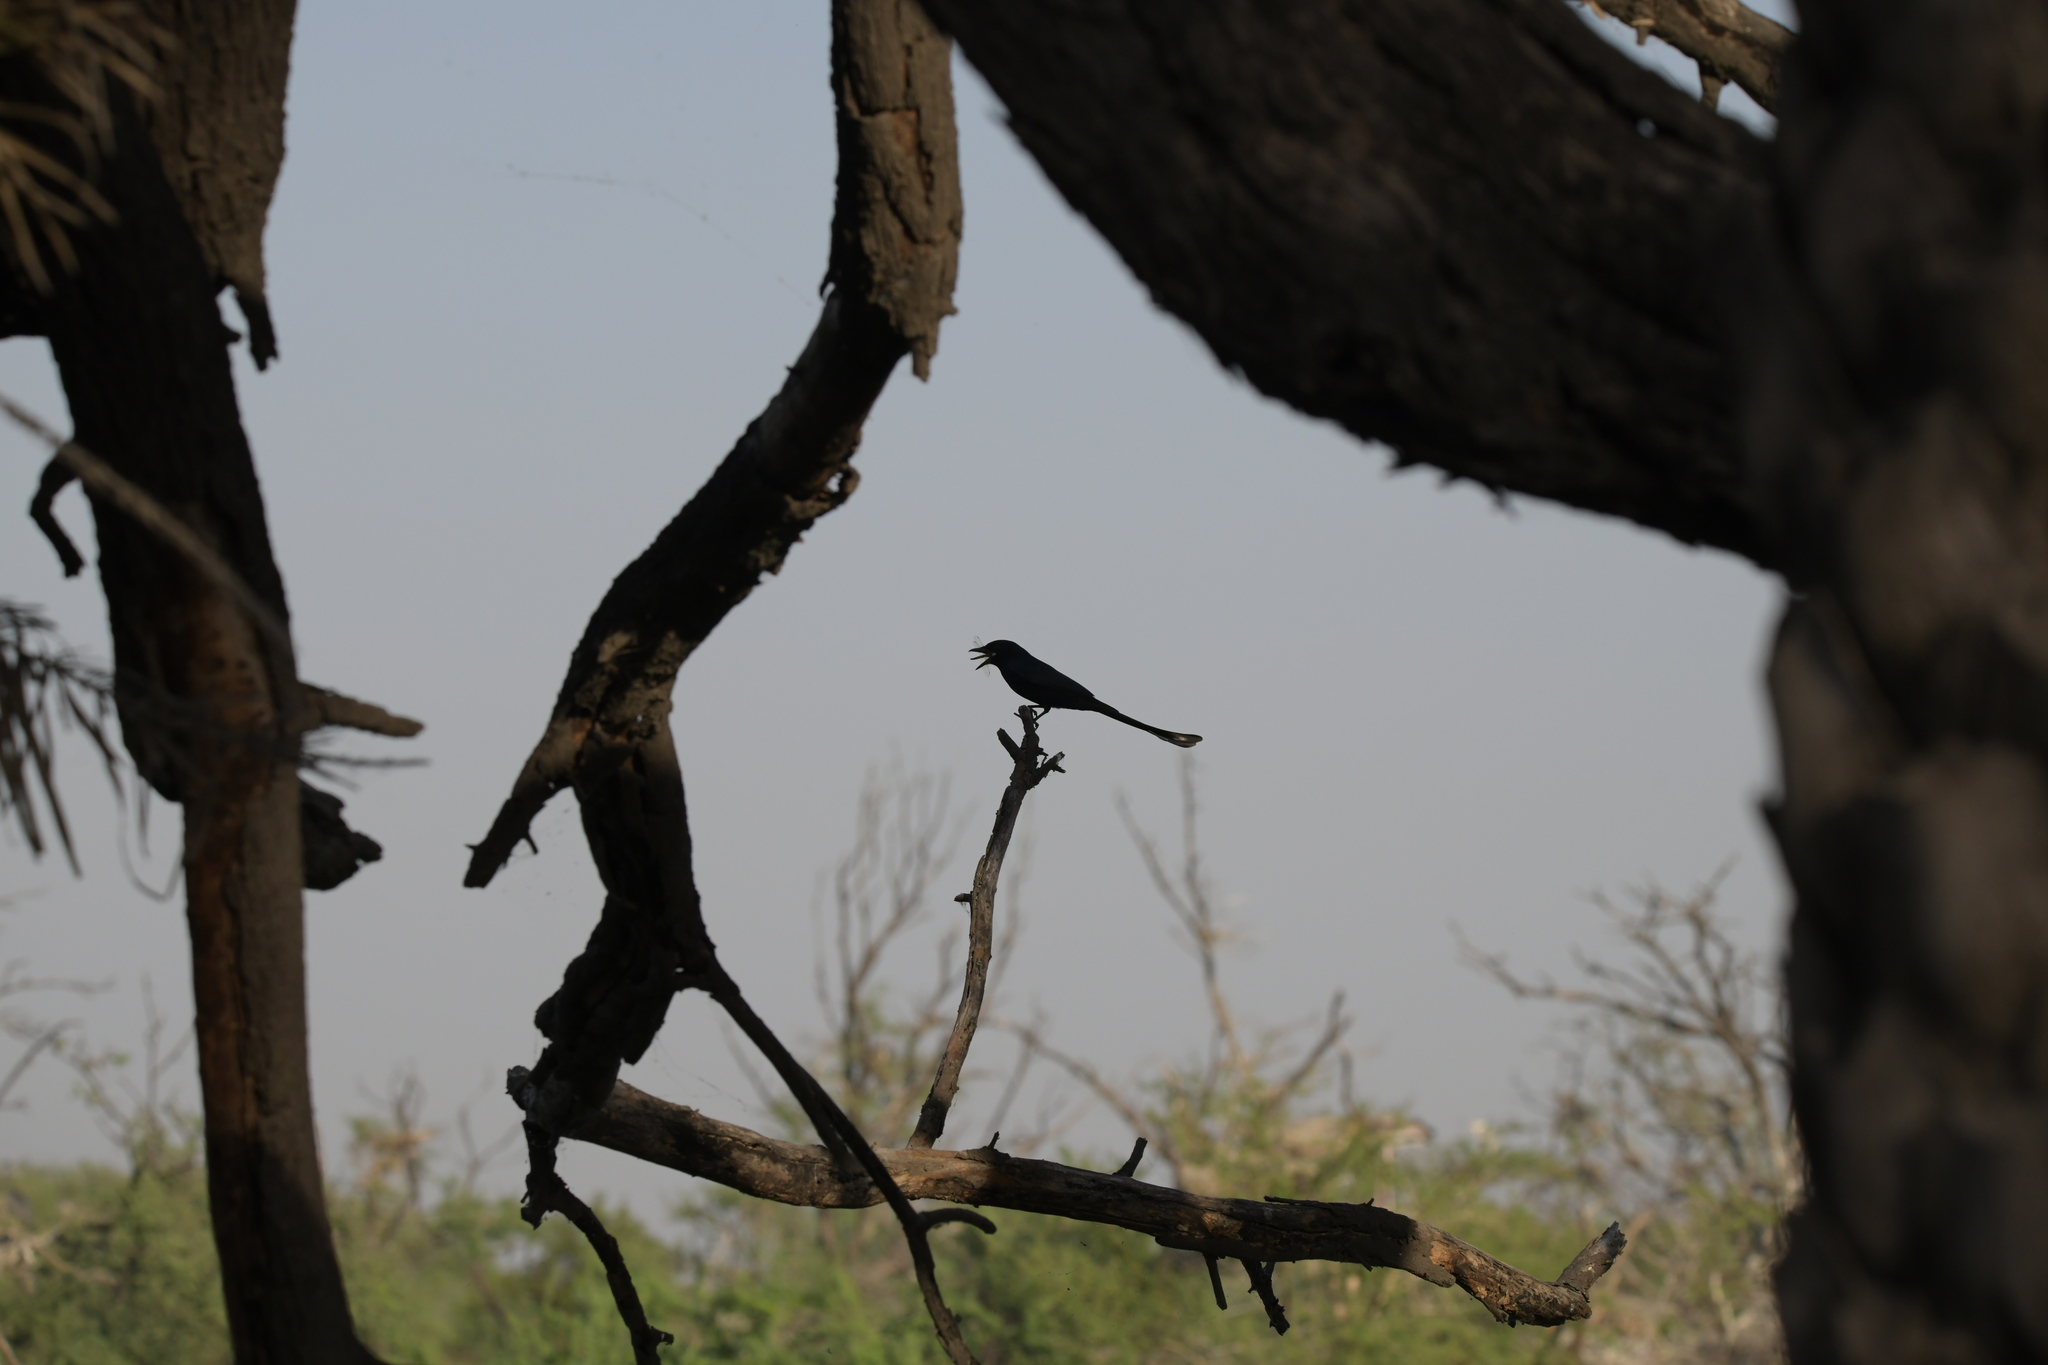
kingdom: Animalia
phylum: Chordata
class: Aves
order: Passeriformes
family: Dicruridae
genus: Dicrurus
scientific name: Dicrurus macrocercus
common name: Black drongo
